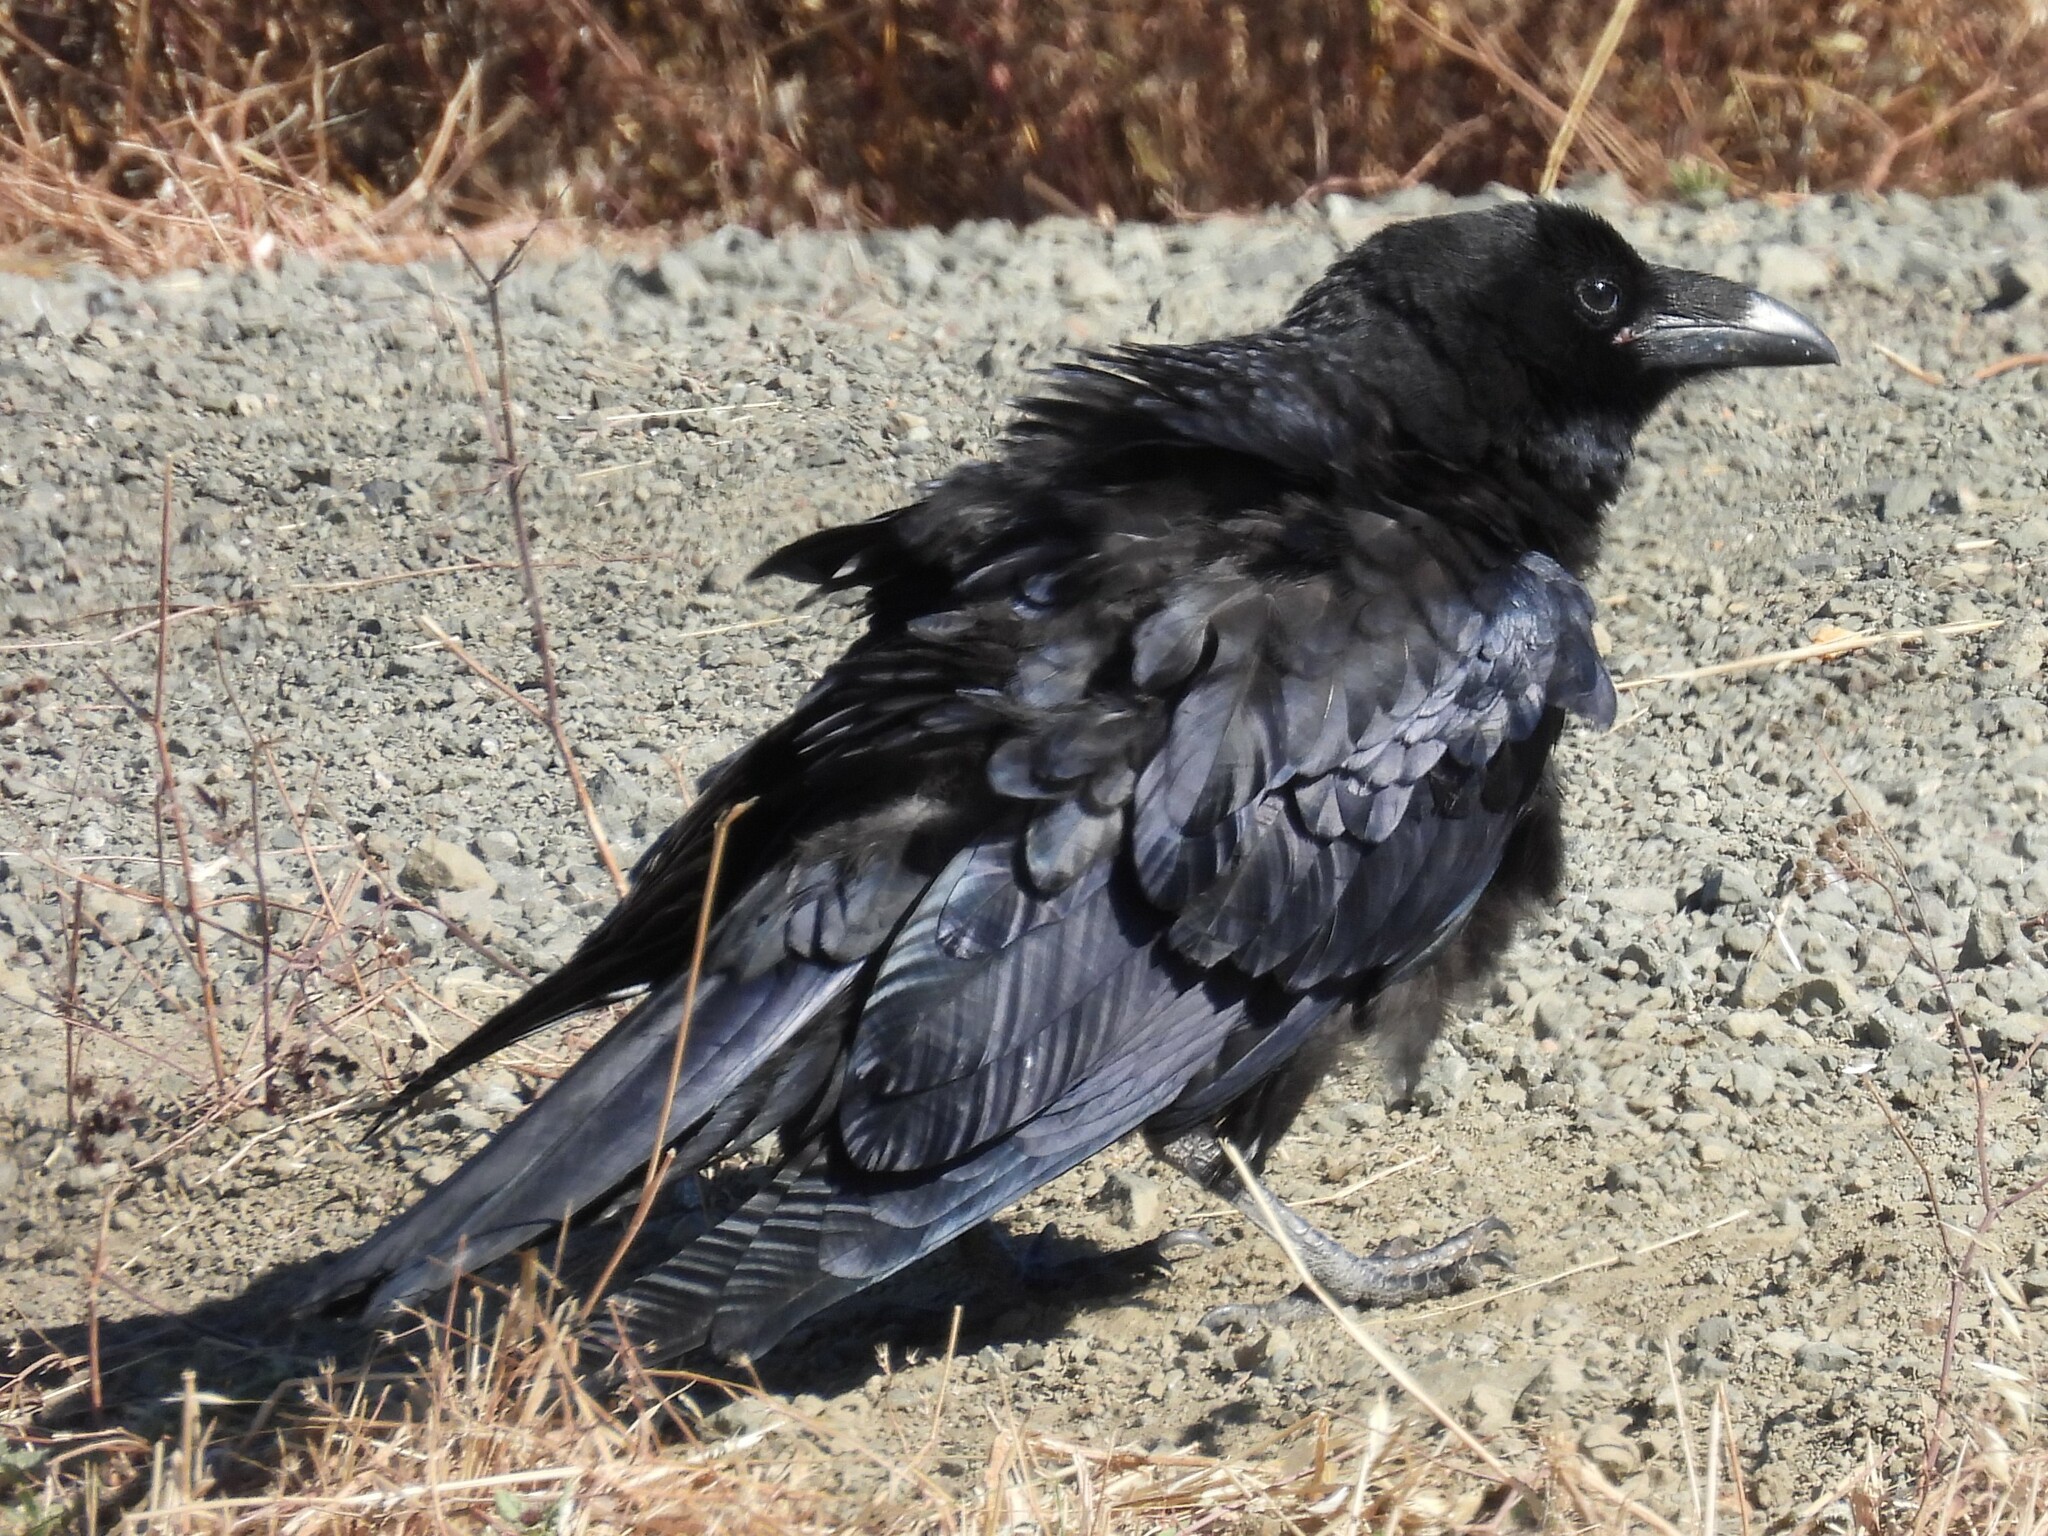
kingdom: Animalia
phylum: Chordata
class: Aves
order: Passeriformes
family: Corvidae
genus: Corvus
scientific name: Corvus corax
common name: Common raven
